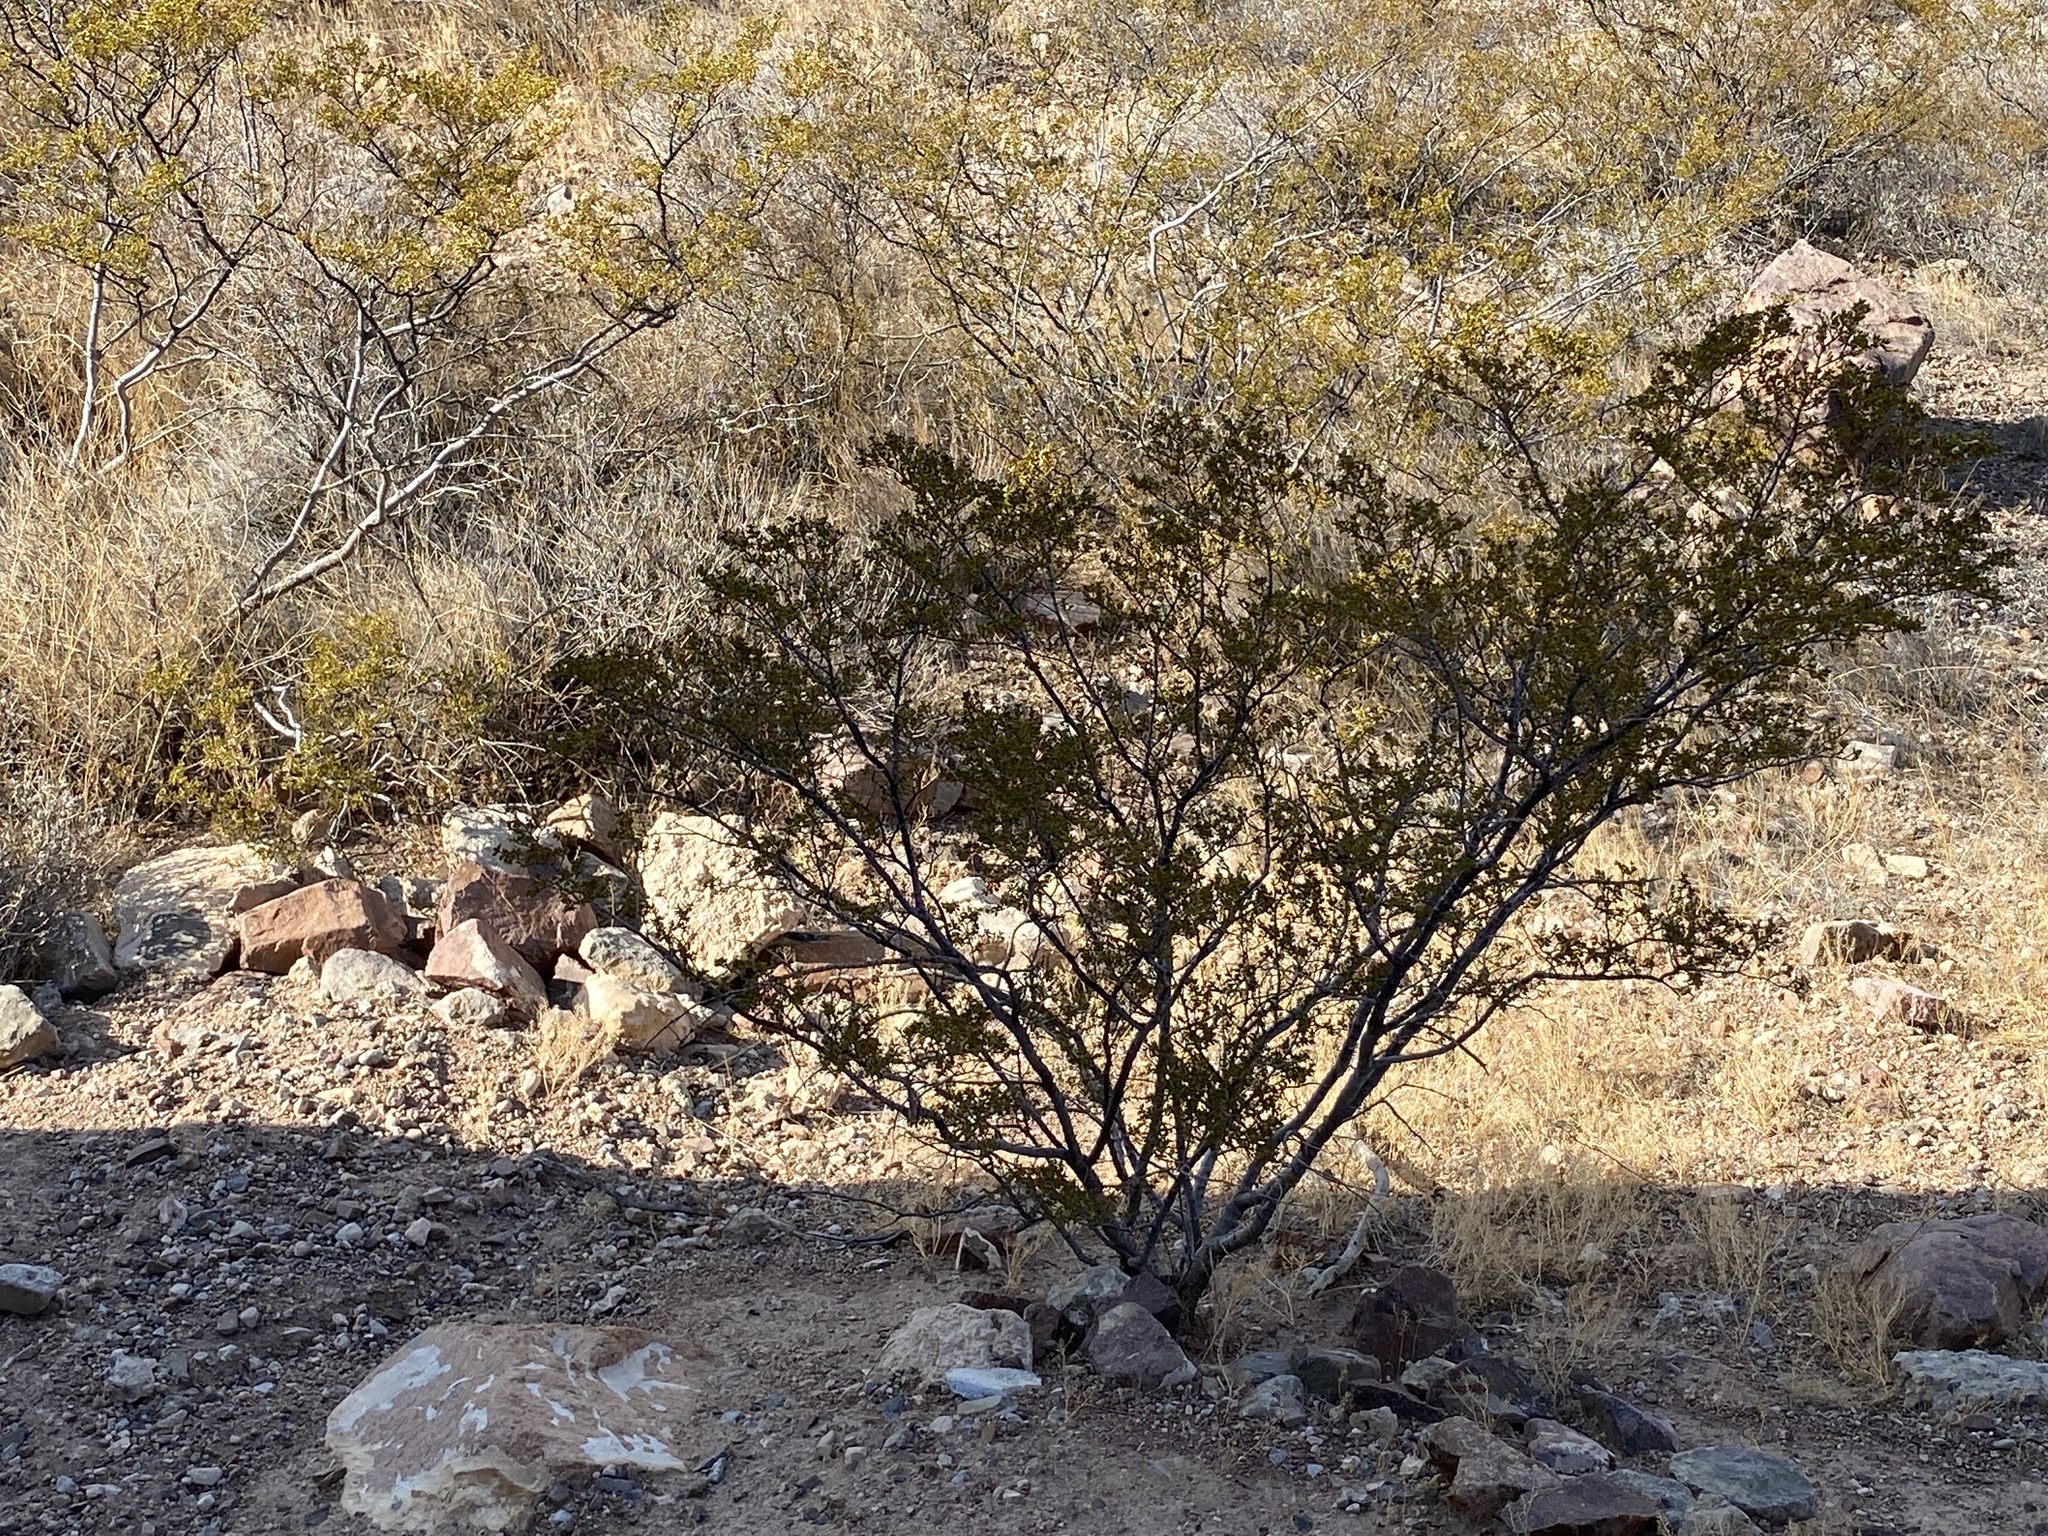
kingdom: Plantae
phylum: Tracheophyta
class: Magnoliopsida
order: Zygophyllales
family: Zygophyllaceae
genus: Larrea
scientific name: Larrea tridentata
